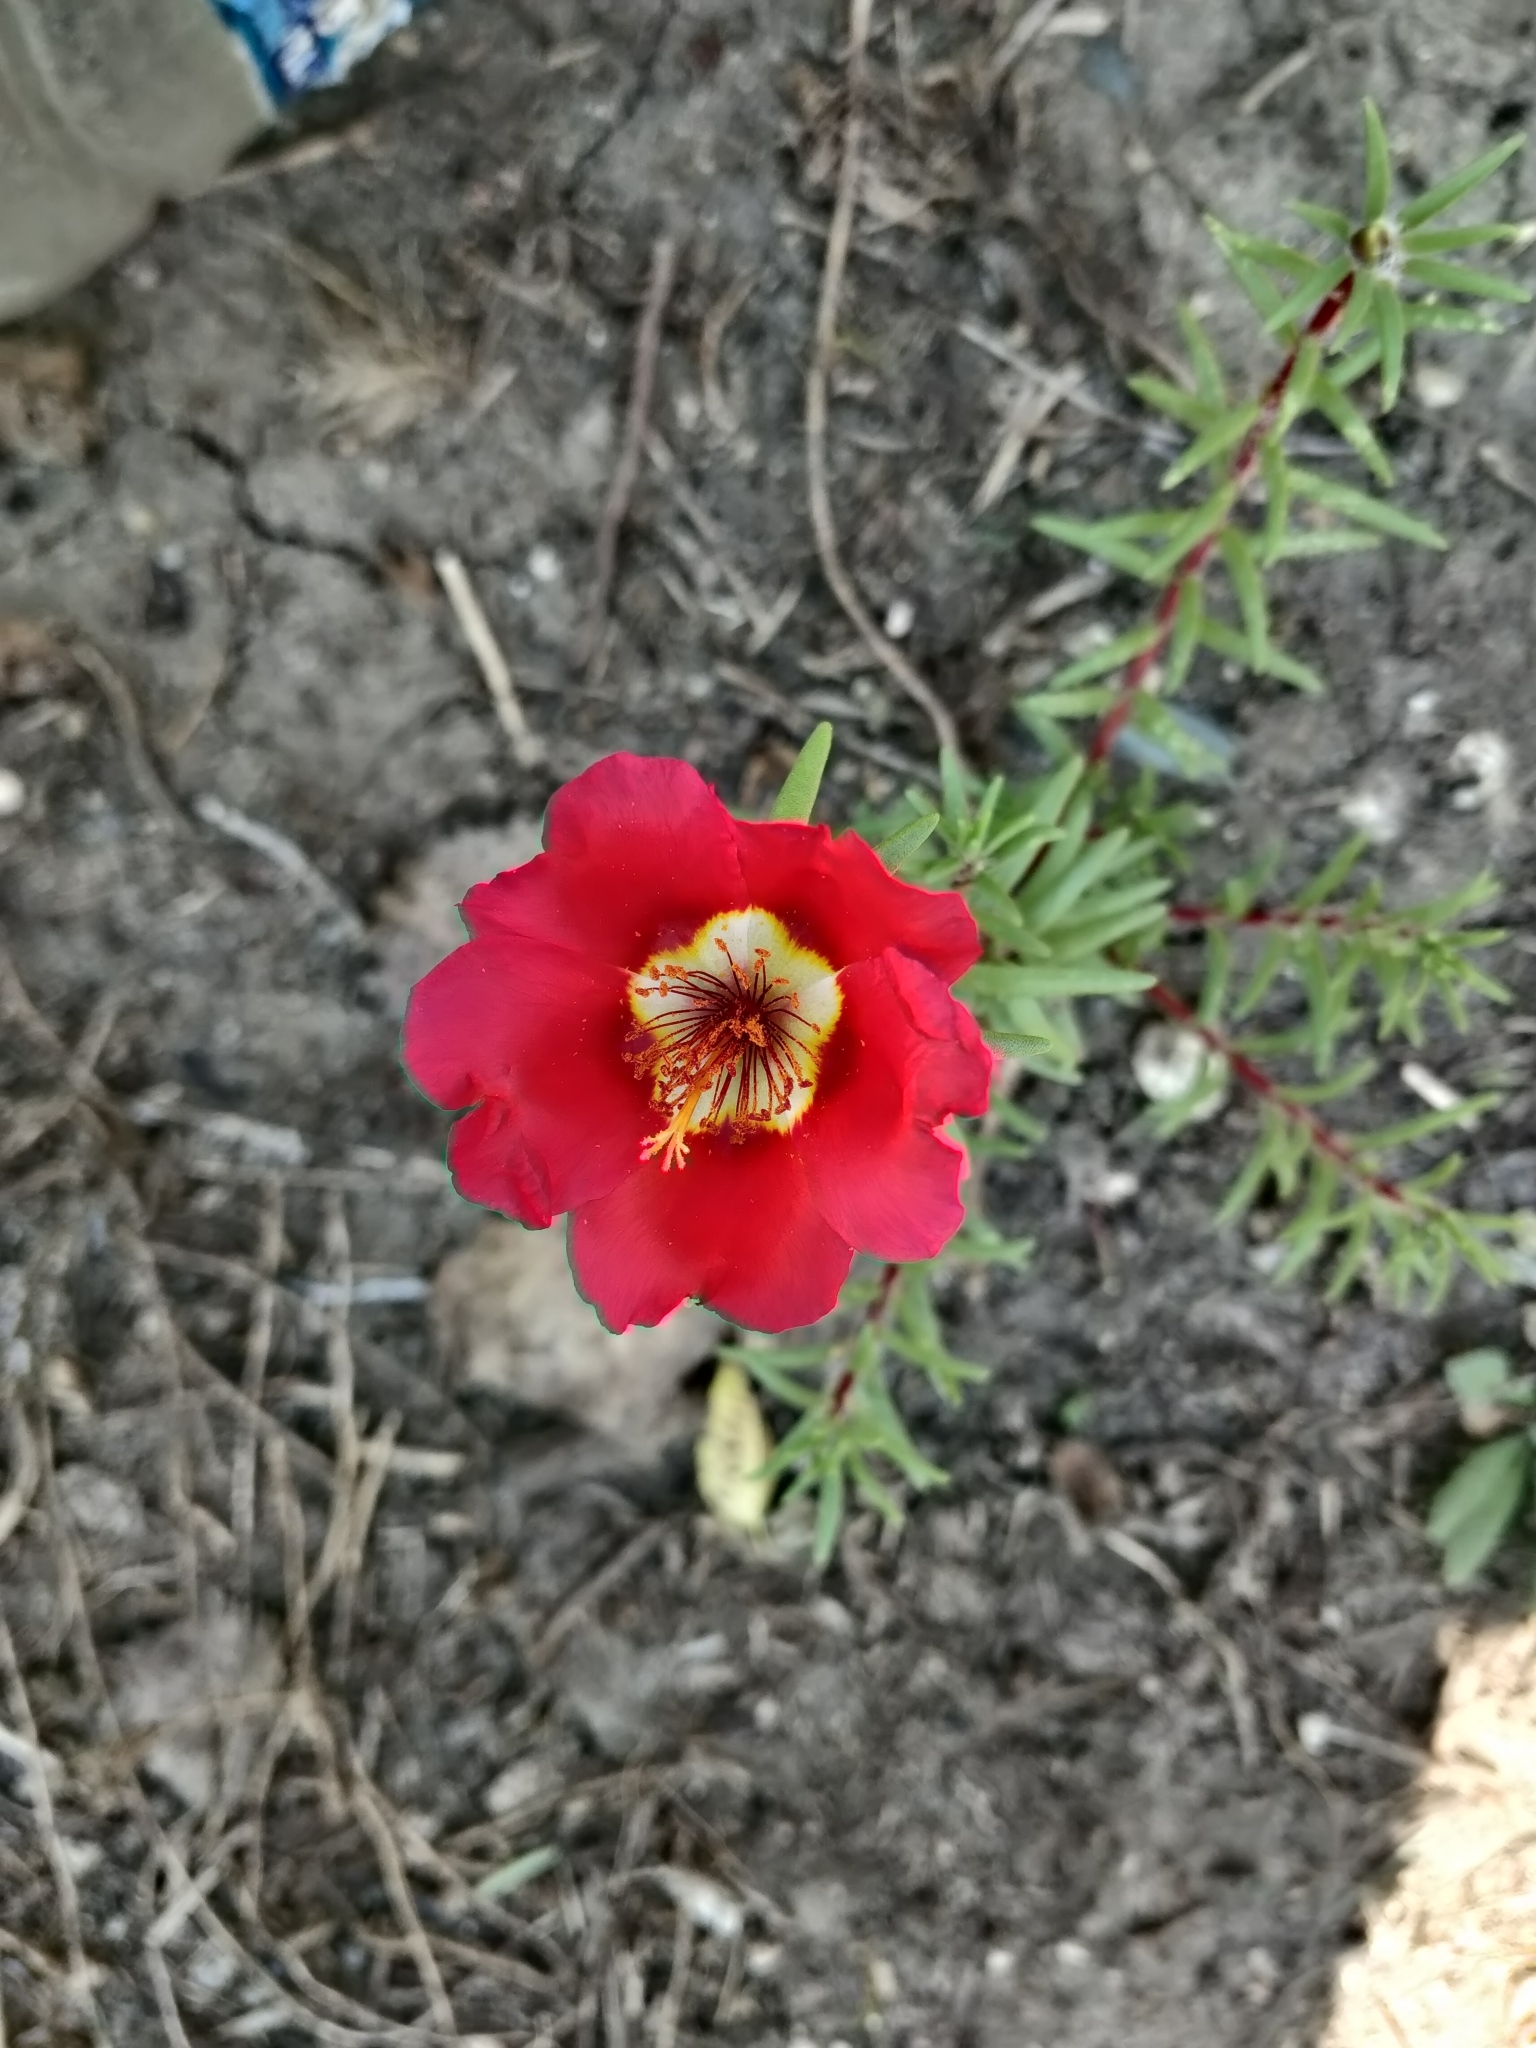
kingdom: Plantae
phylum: Tracheophyta
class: Magnoliopsida
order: Caryophyllales
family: Portulacaceae
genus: Portulaca
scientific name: Portulaca grandiflora
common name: Moss-rose
